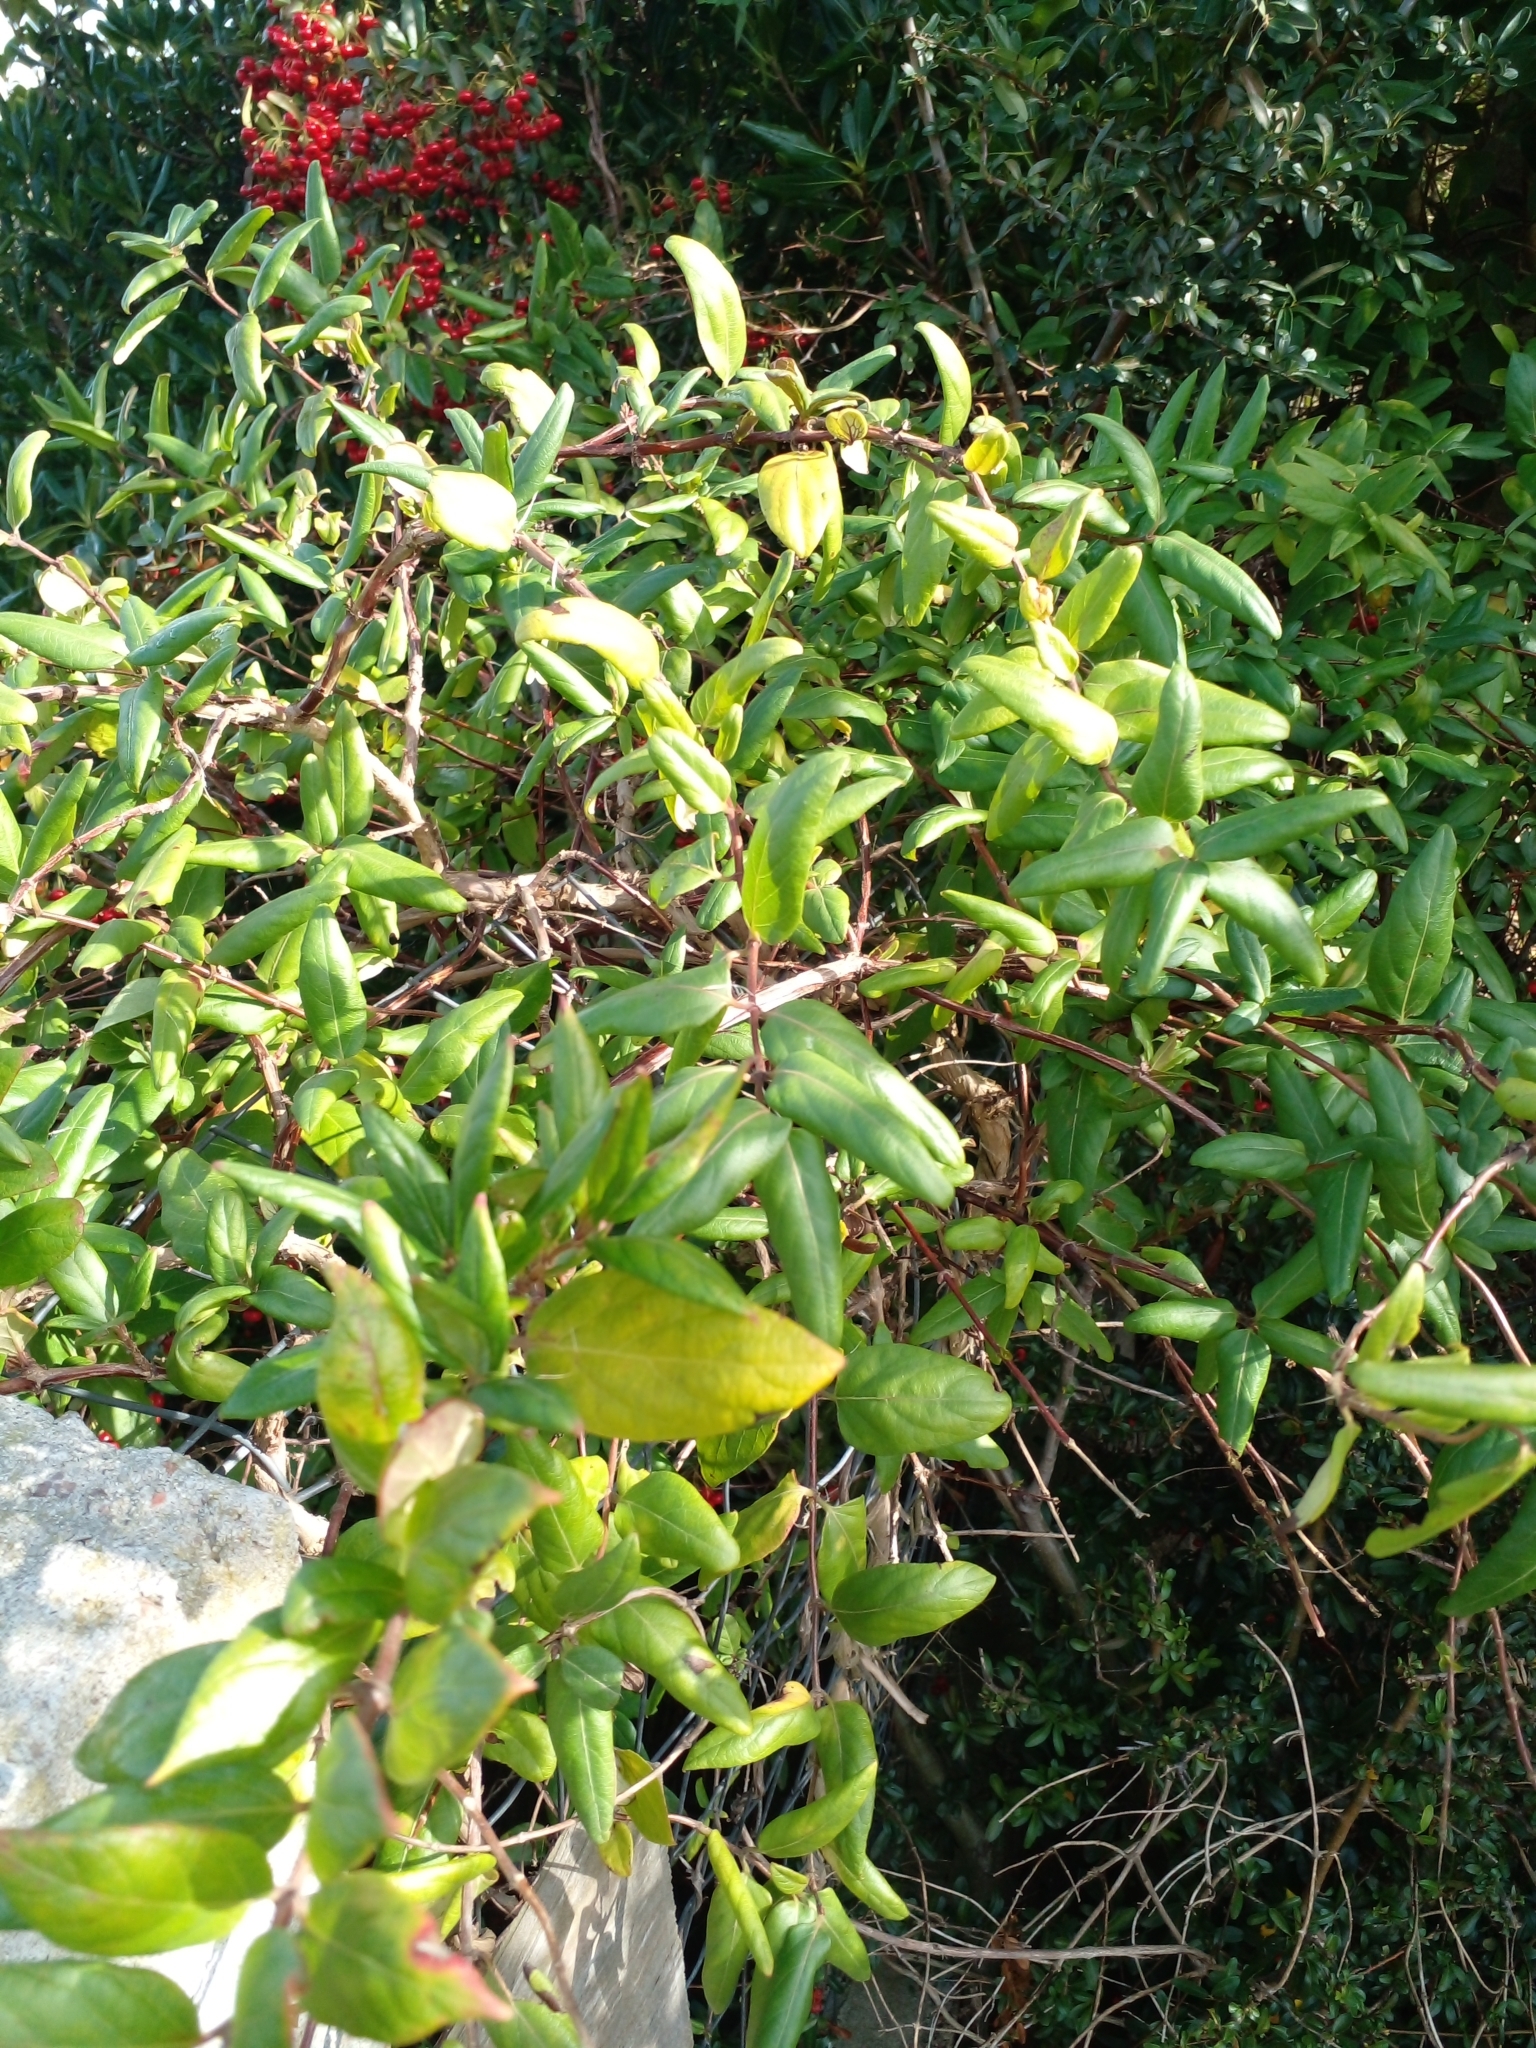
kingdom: Plantae
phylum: Tracheophyta
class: Magnoliopsida
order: Dipsacales
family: Caprifoliaceae
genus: Lonicera
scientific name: Lonicera japonica
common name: Japanese honeysuckle
